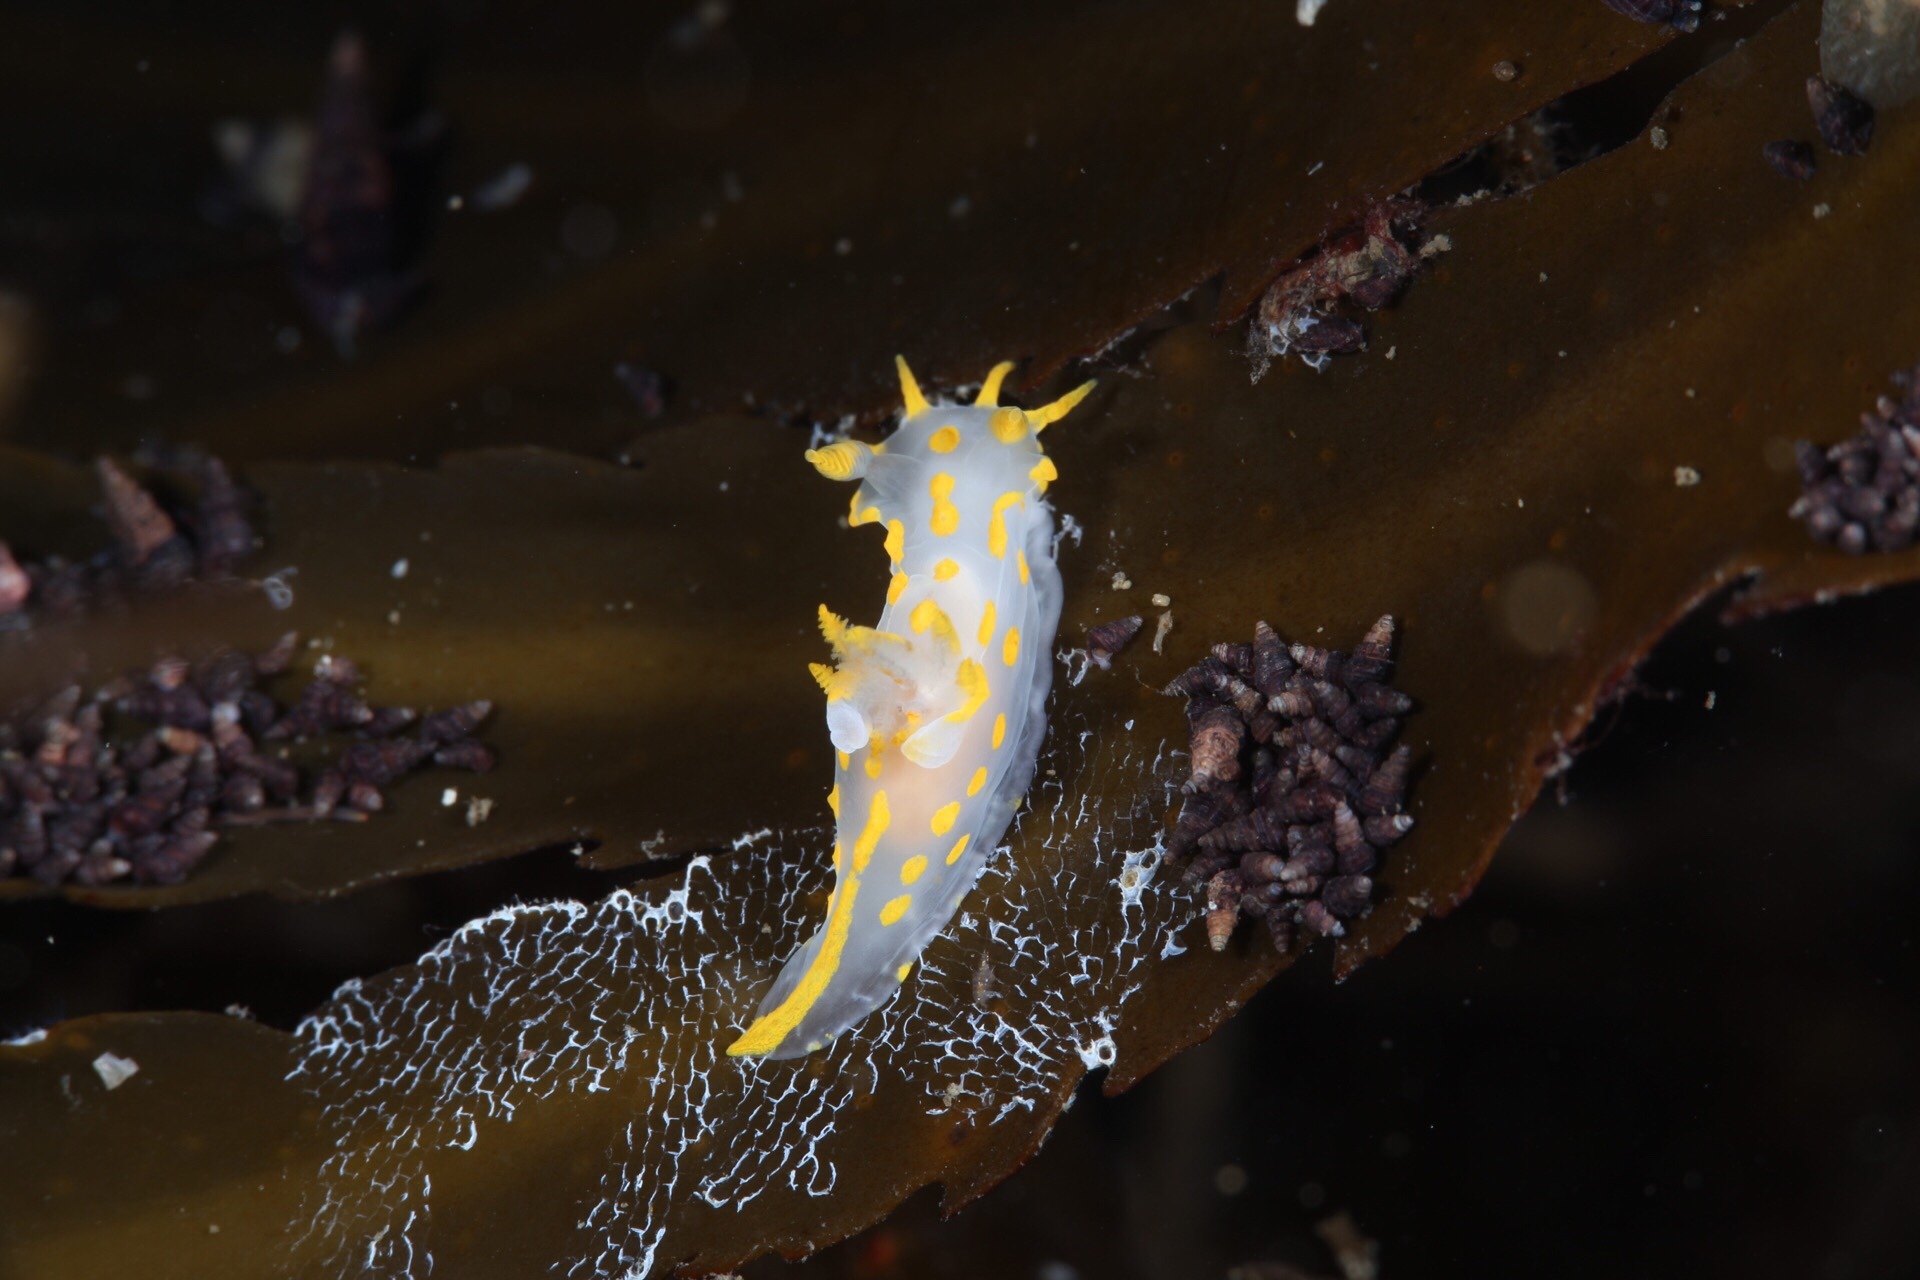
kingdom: Animalia
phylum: Mollusca
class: Gastropoda
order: Nudibranchia
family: Polyceridae
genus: Polycera
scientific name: Polycera quadrilineata
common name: Four-striped polycera
